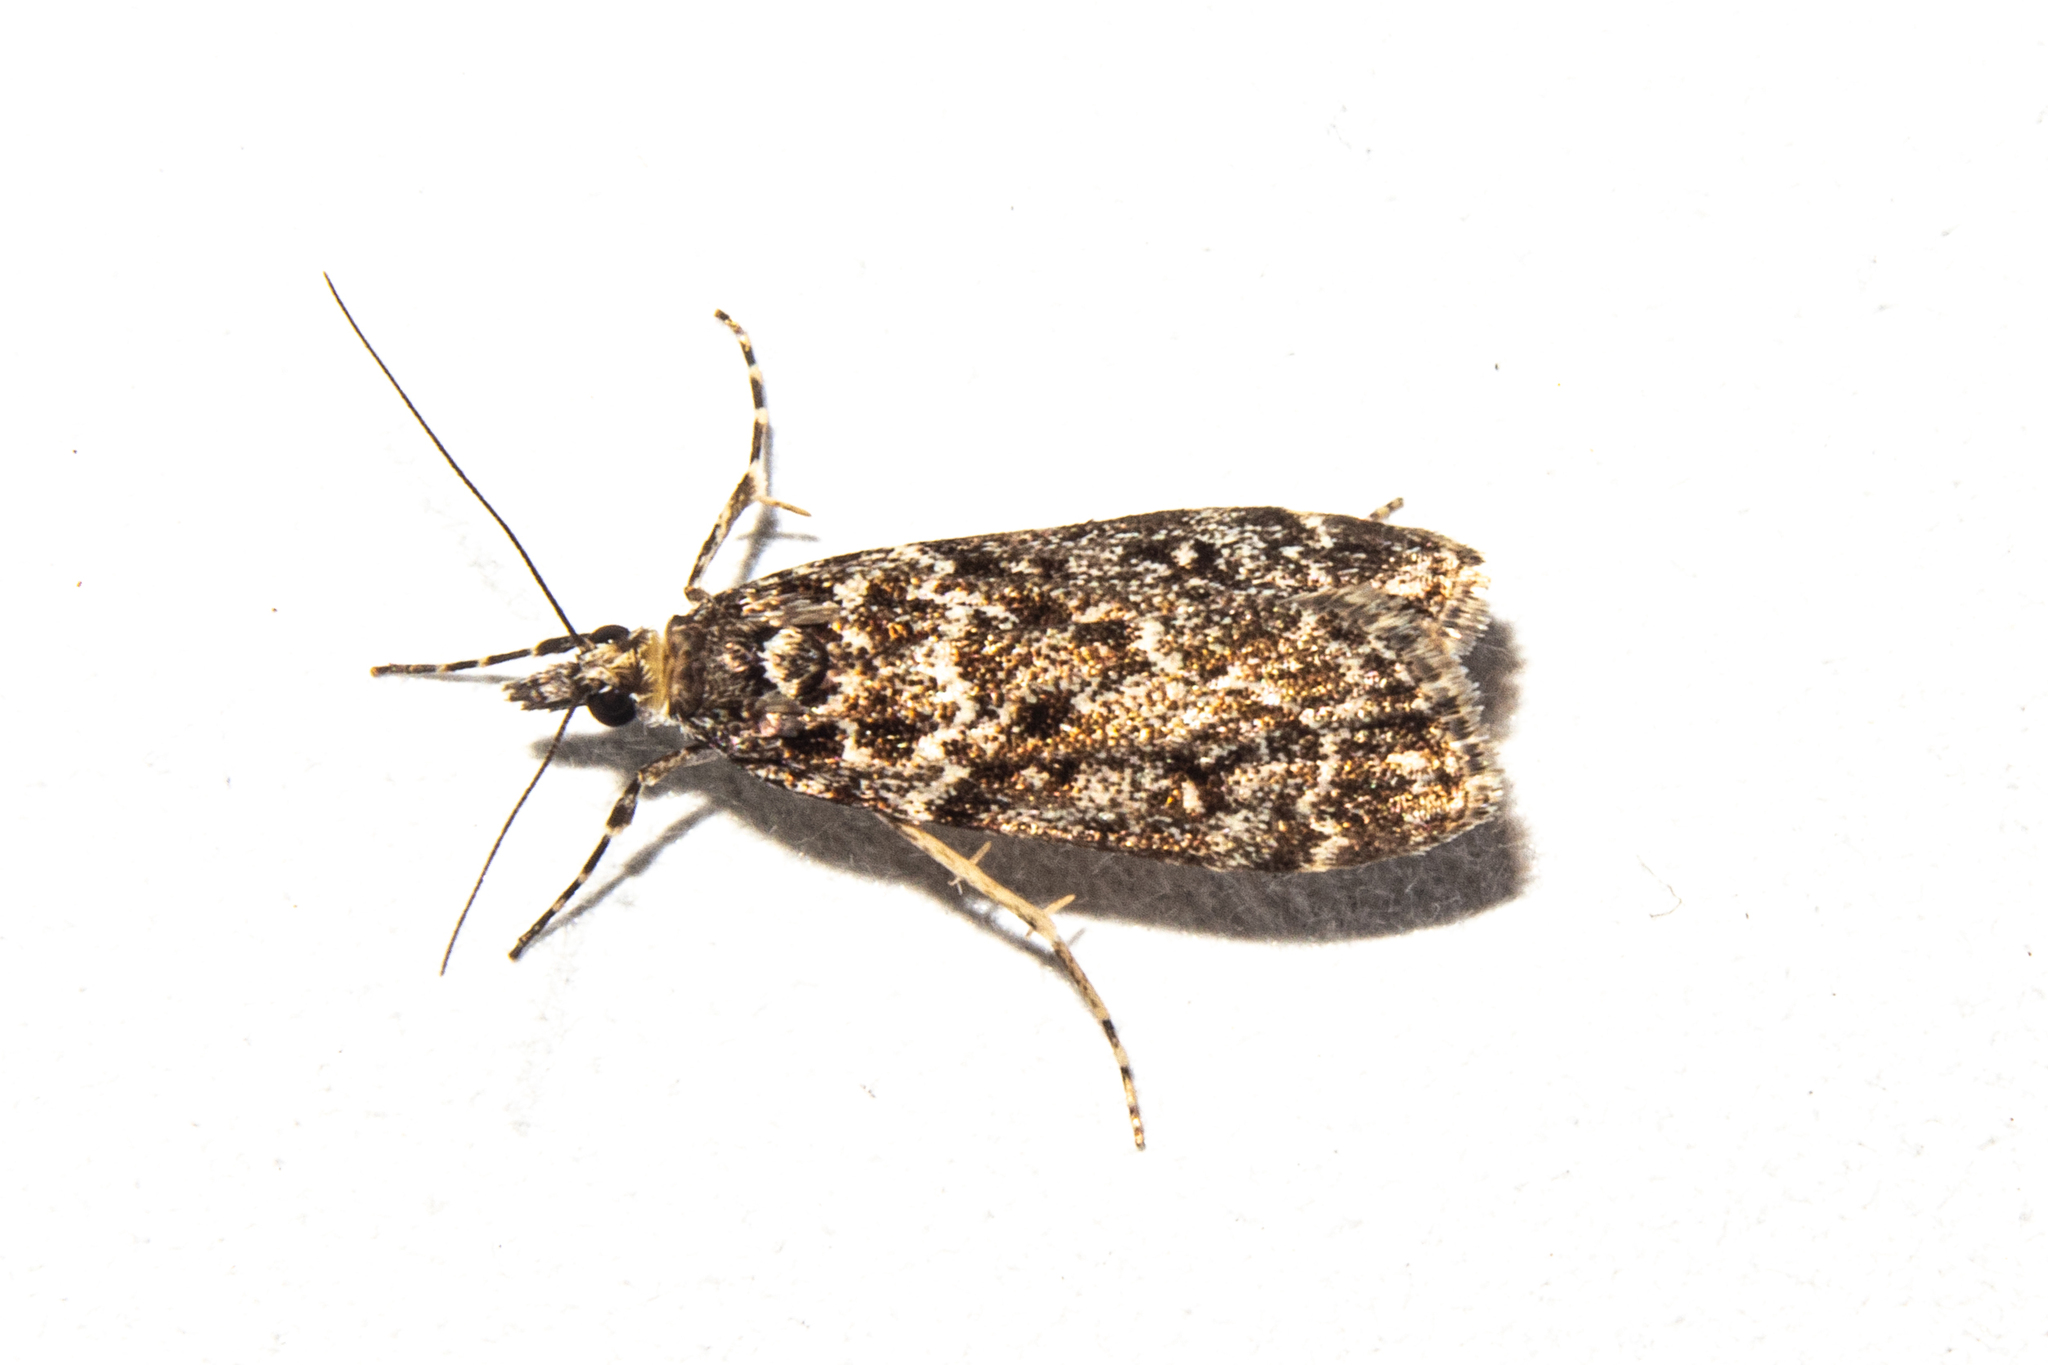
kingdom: Animalia
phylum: Arthropoda
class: Insecta
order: Lepidoptera
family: Crambidae
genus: Eudonia
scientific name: Eudonia philerga
